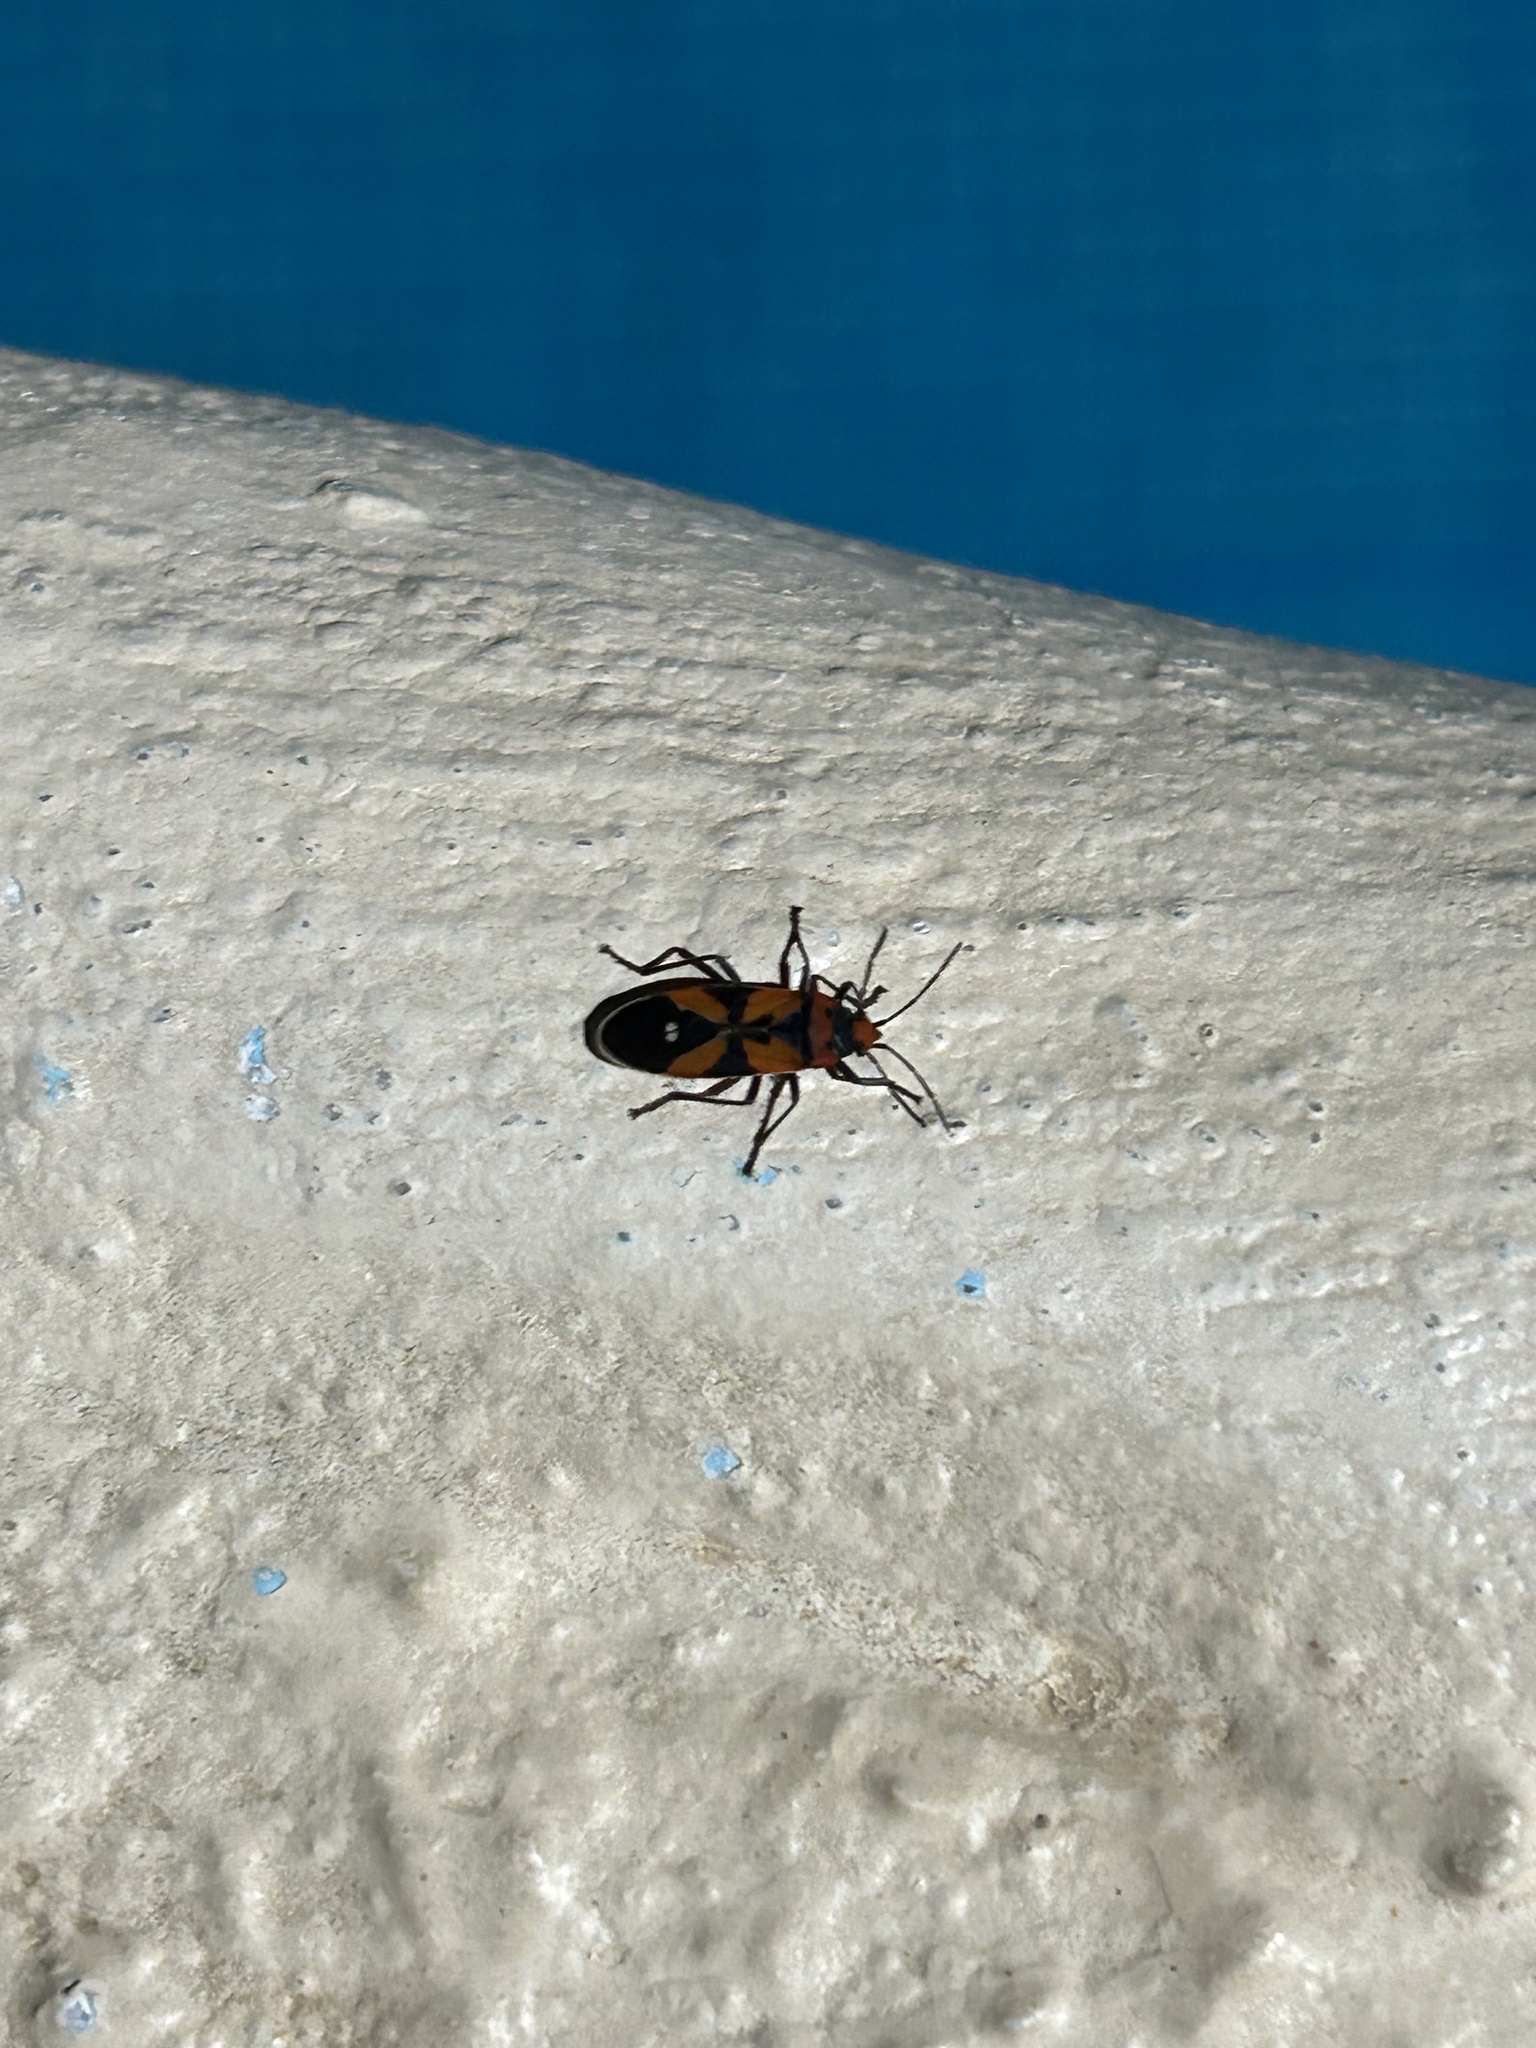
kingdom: Animalia
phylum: Arthropoda
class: Insecta
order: Hemiptera
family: Lygaeidae
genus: Lygaeus
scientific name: Lygaeus analis
